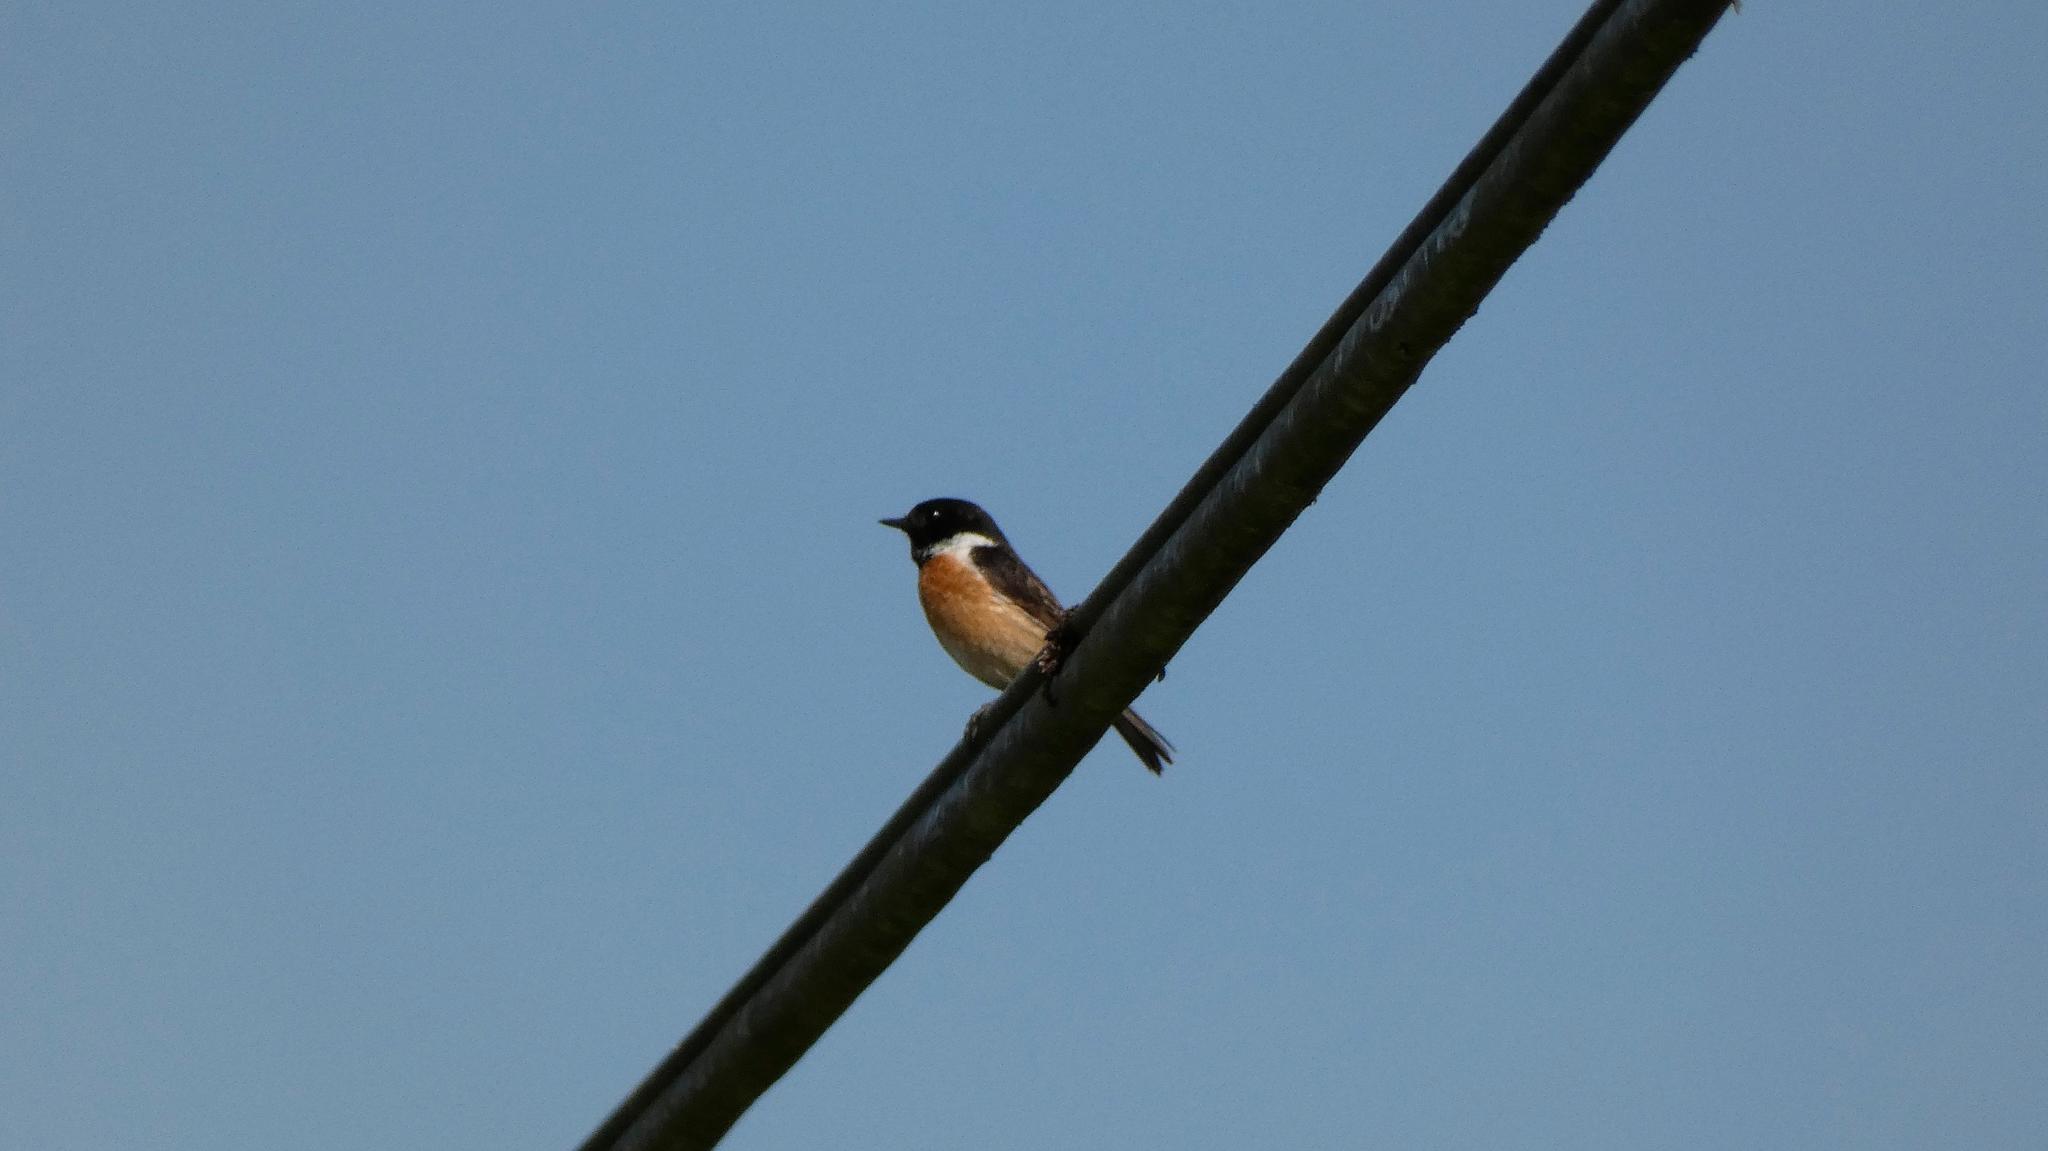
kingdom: Animalia
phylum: Chordata
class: Aves
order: Passeriformes
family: Muscicapidae
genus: Saxicola
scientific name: Saxicola rubicola
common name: European stonechat
